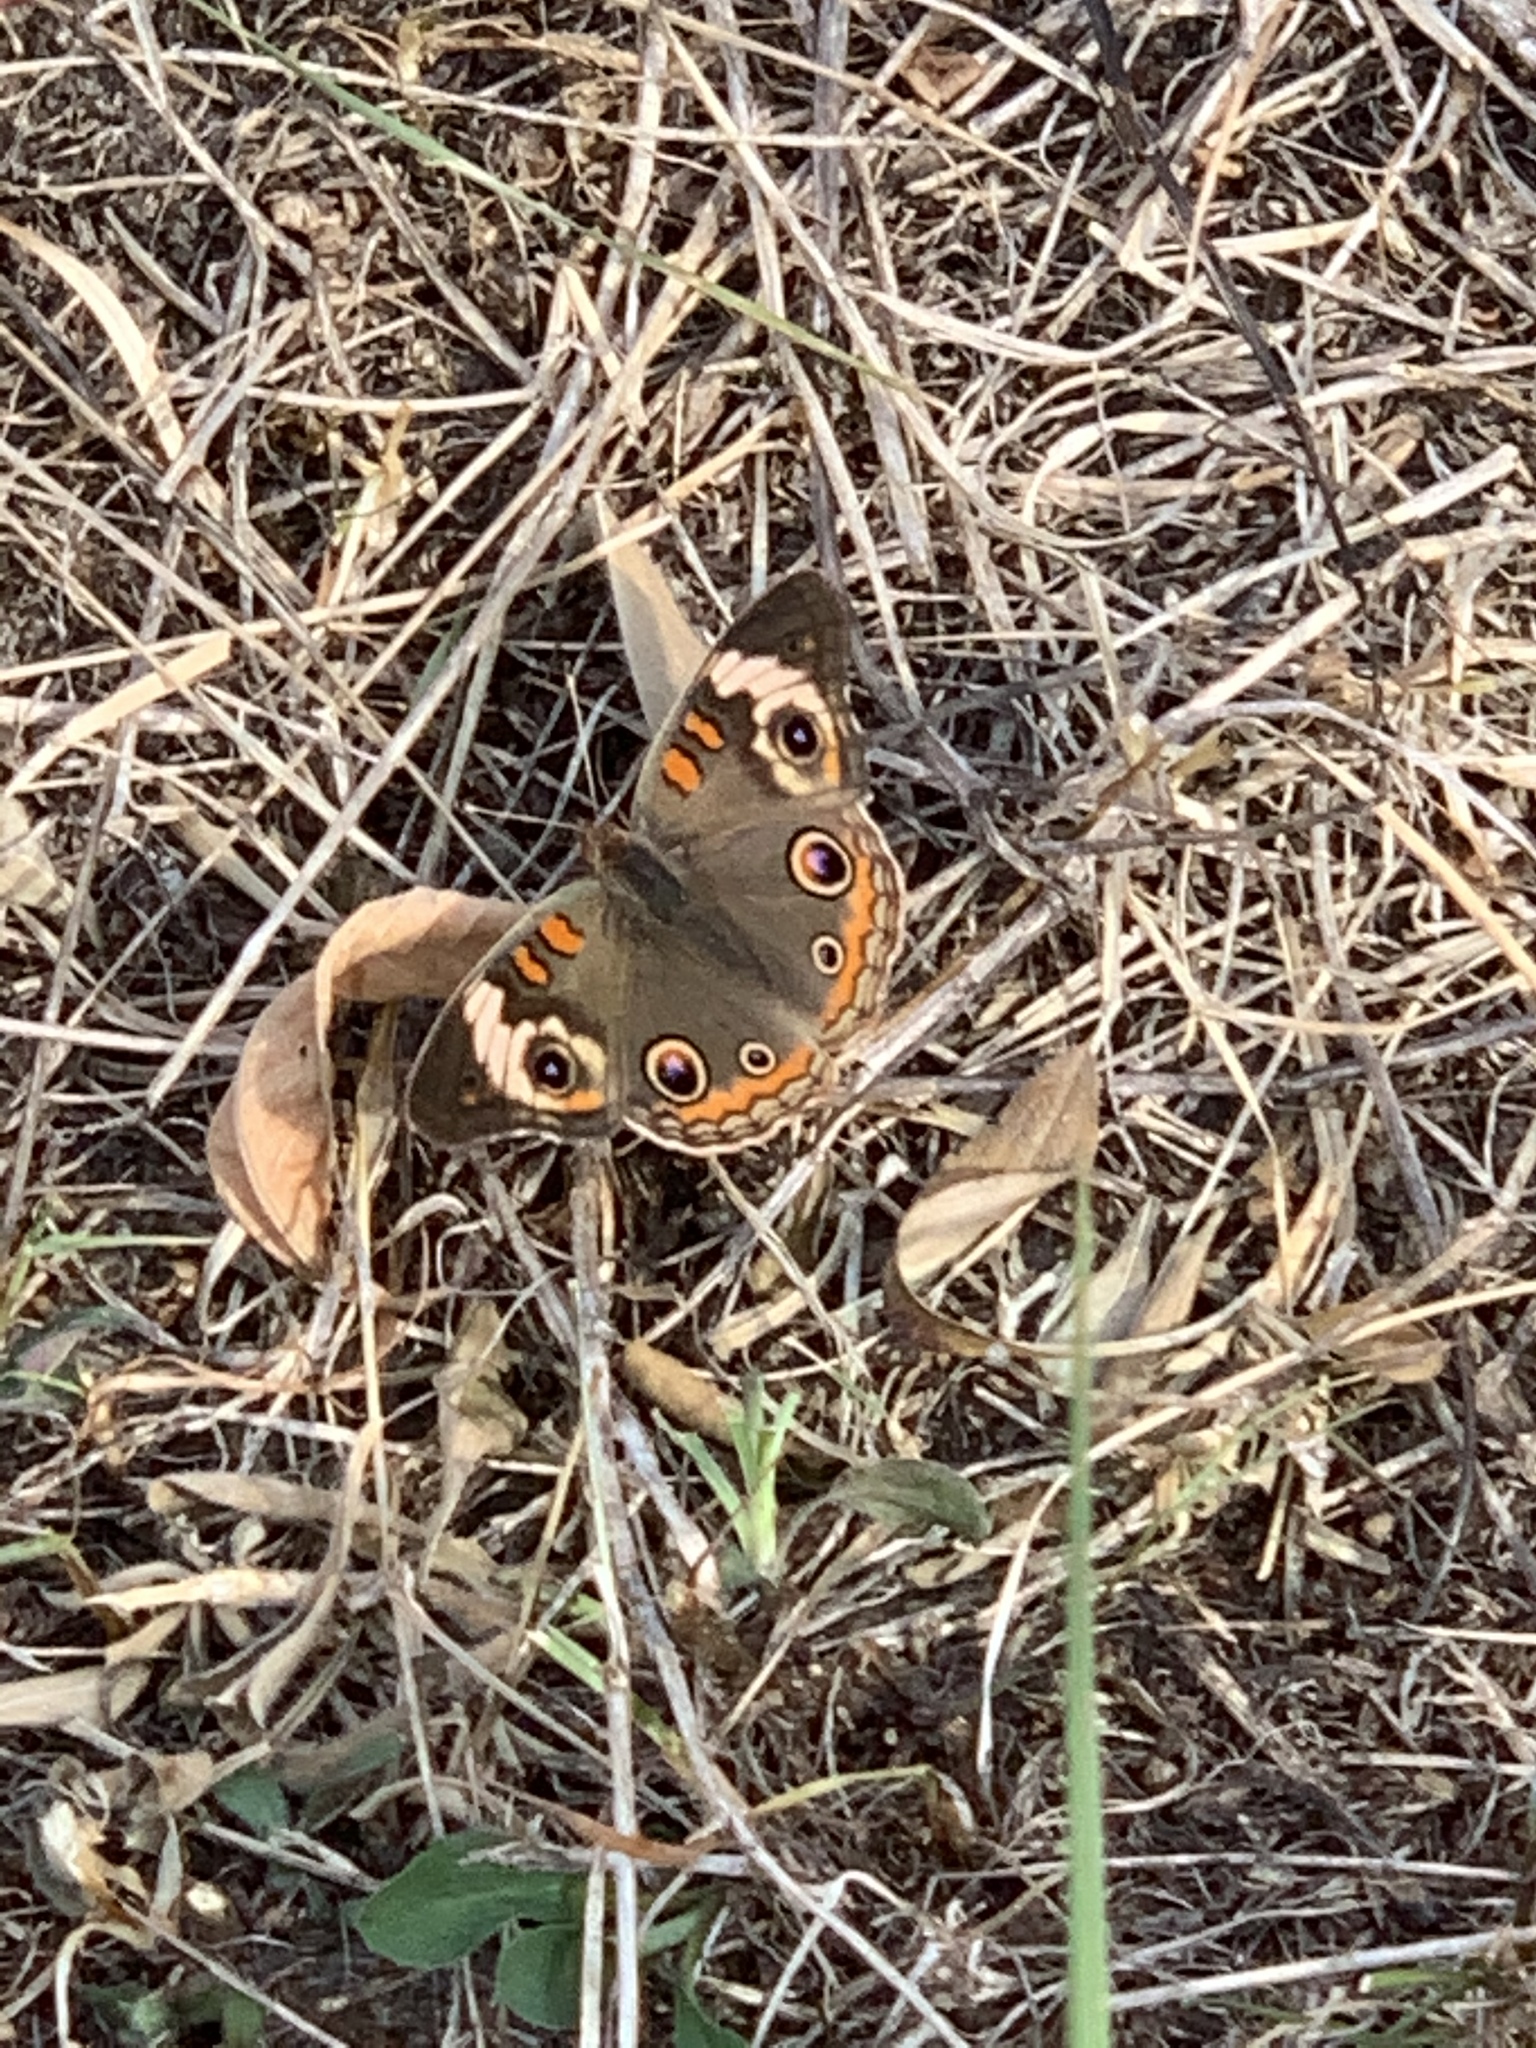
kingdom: Animalia
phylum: Arthropoda
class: Insecta
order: Lepidoptera
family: Nymphalidae
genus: Junonia
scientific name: Junonia coenia
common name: Common buckeye
